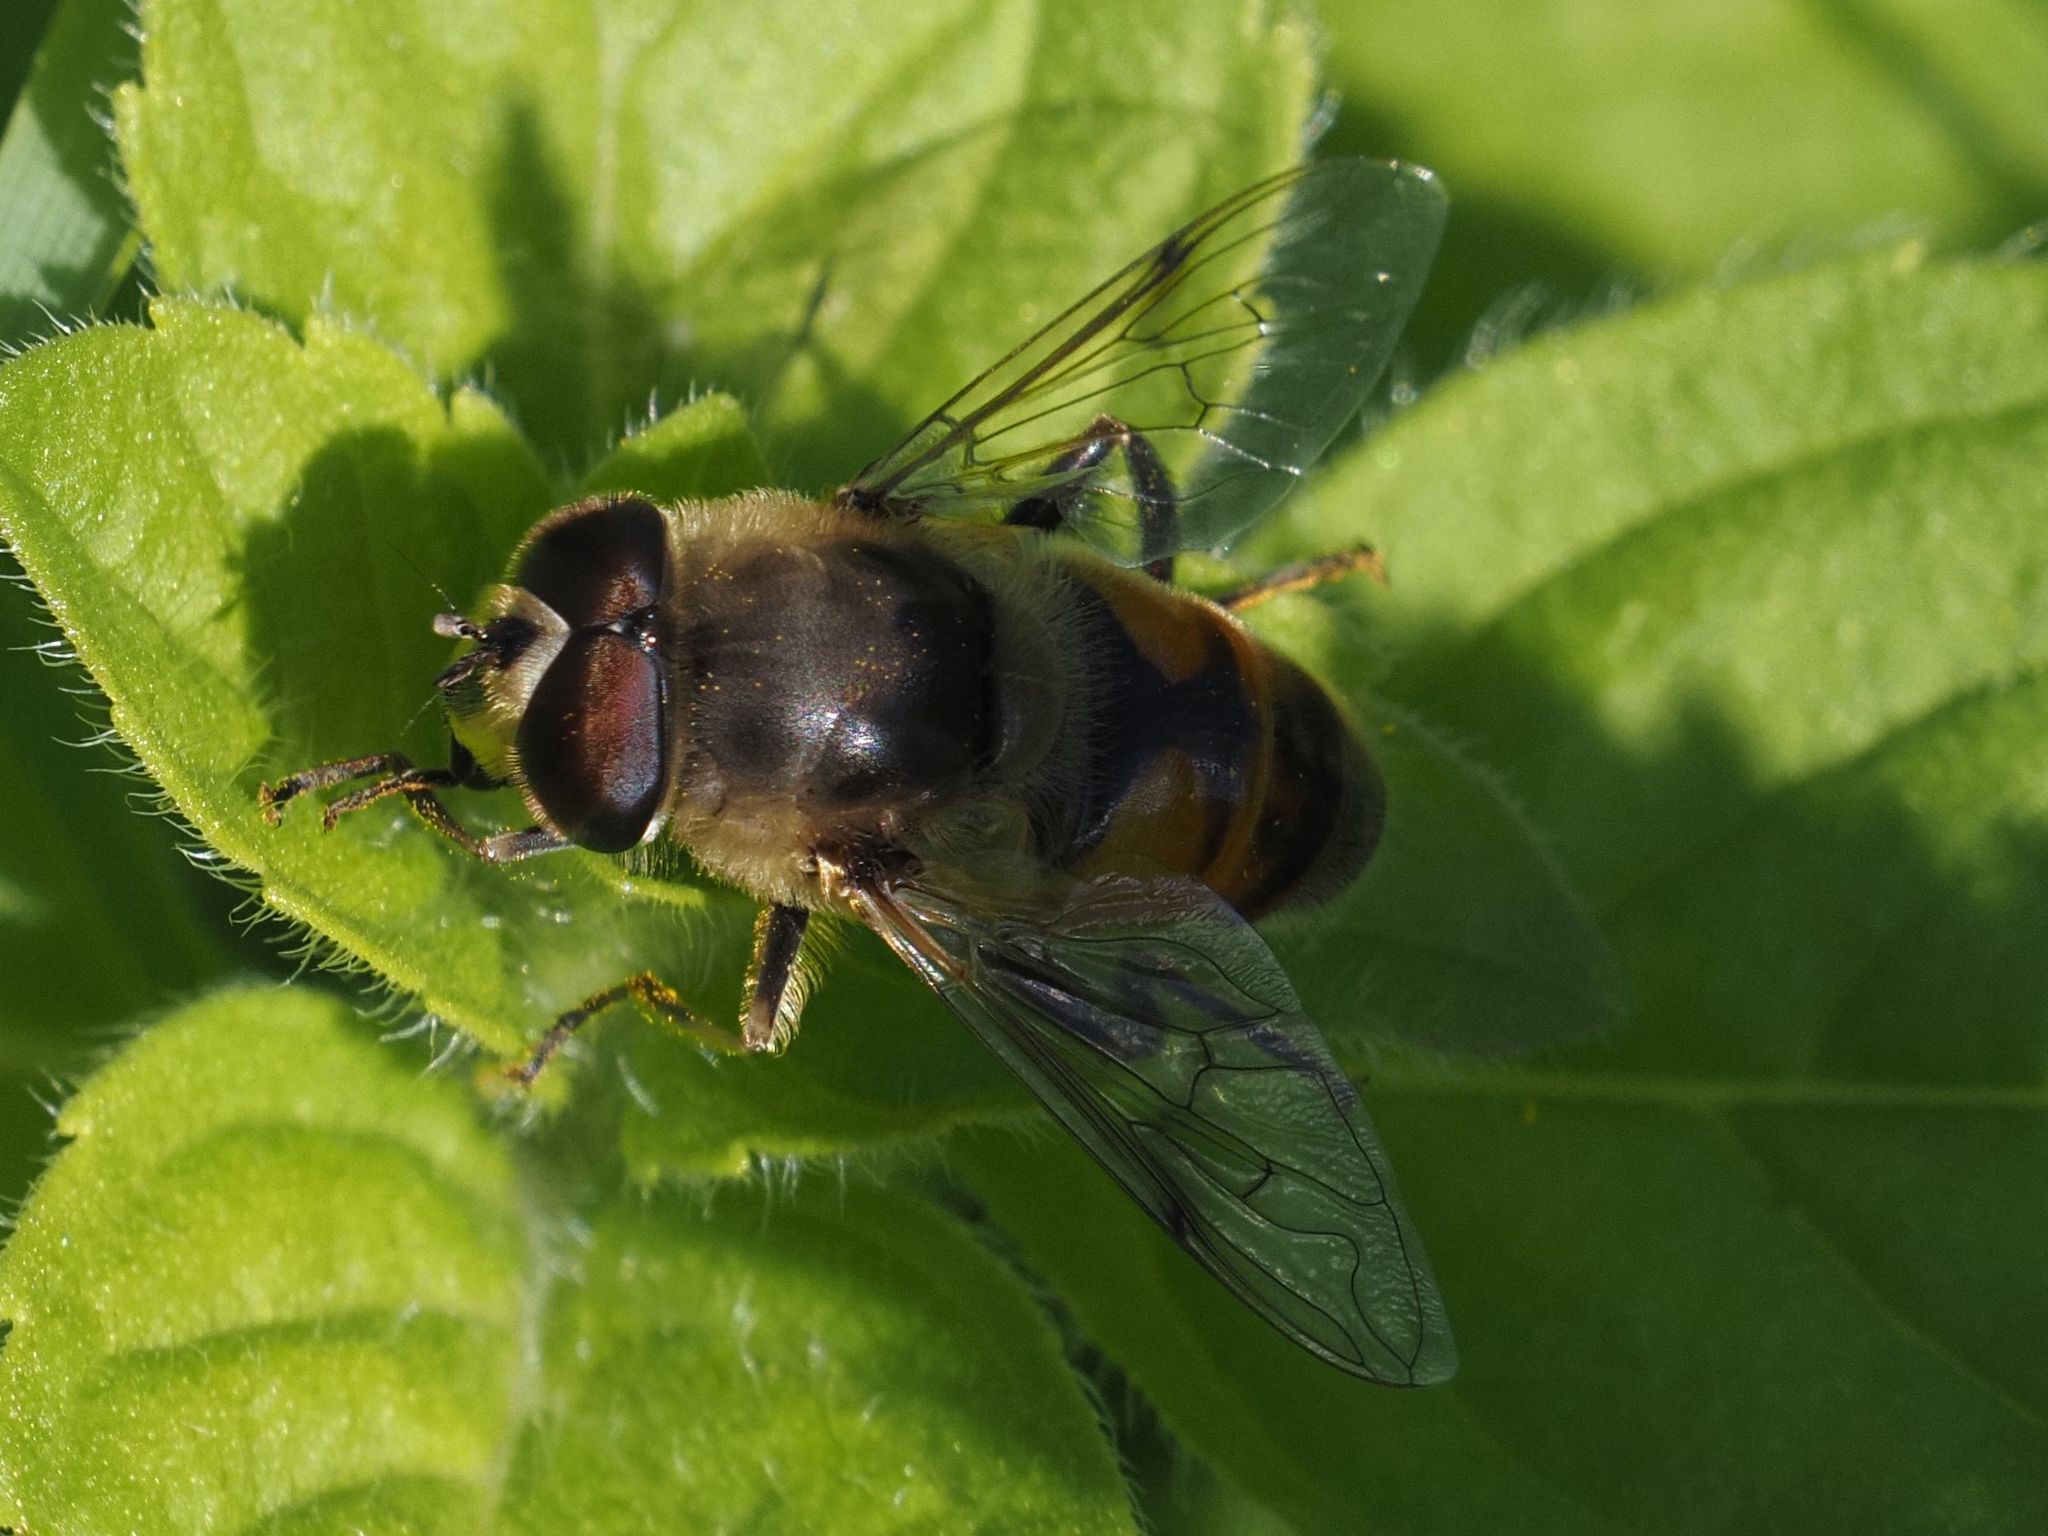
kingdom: Animalia
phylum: Arthropoda
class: Insecta
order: Diptera
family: Syrphidae
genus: Eristalis
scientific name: Eristalis tenax
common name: Drone fly
